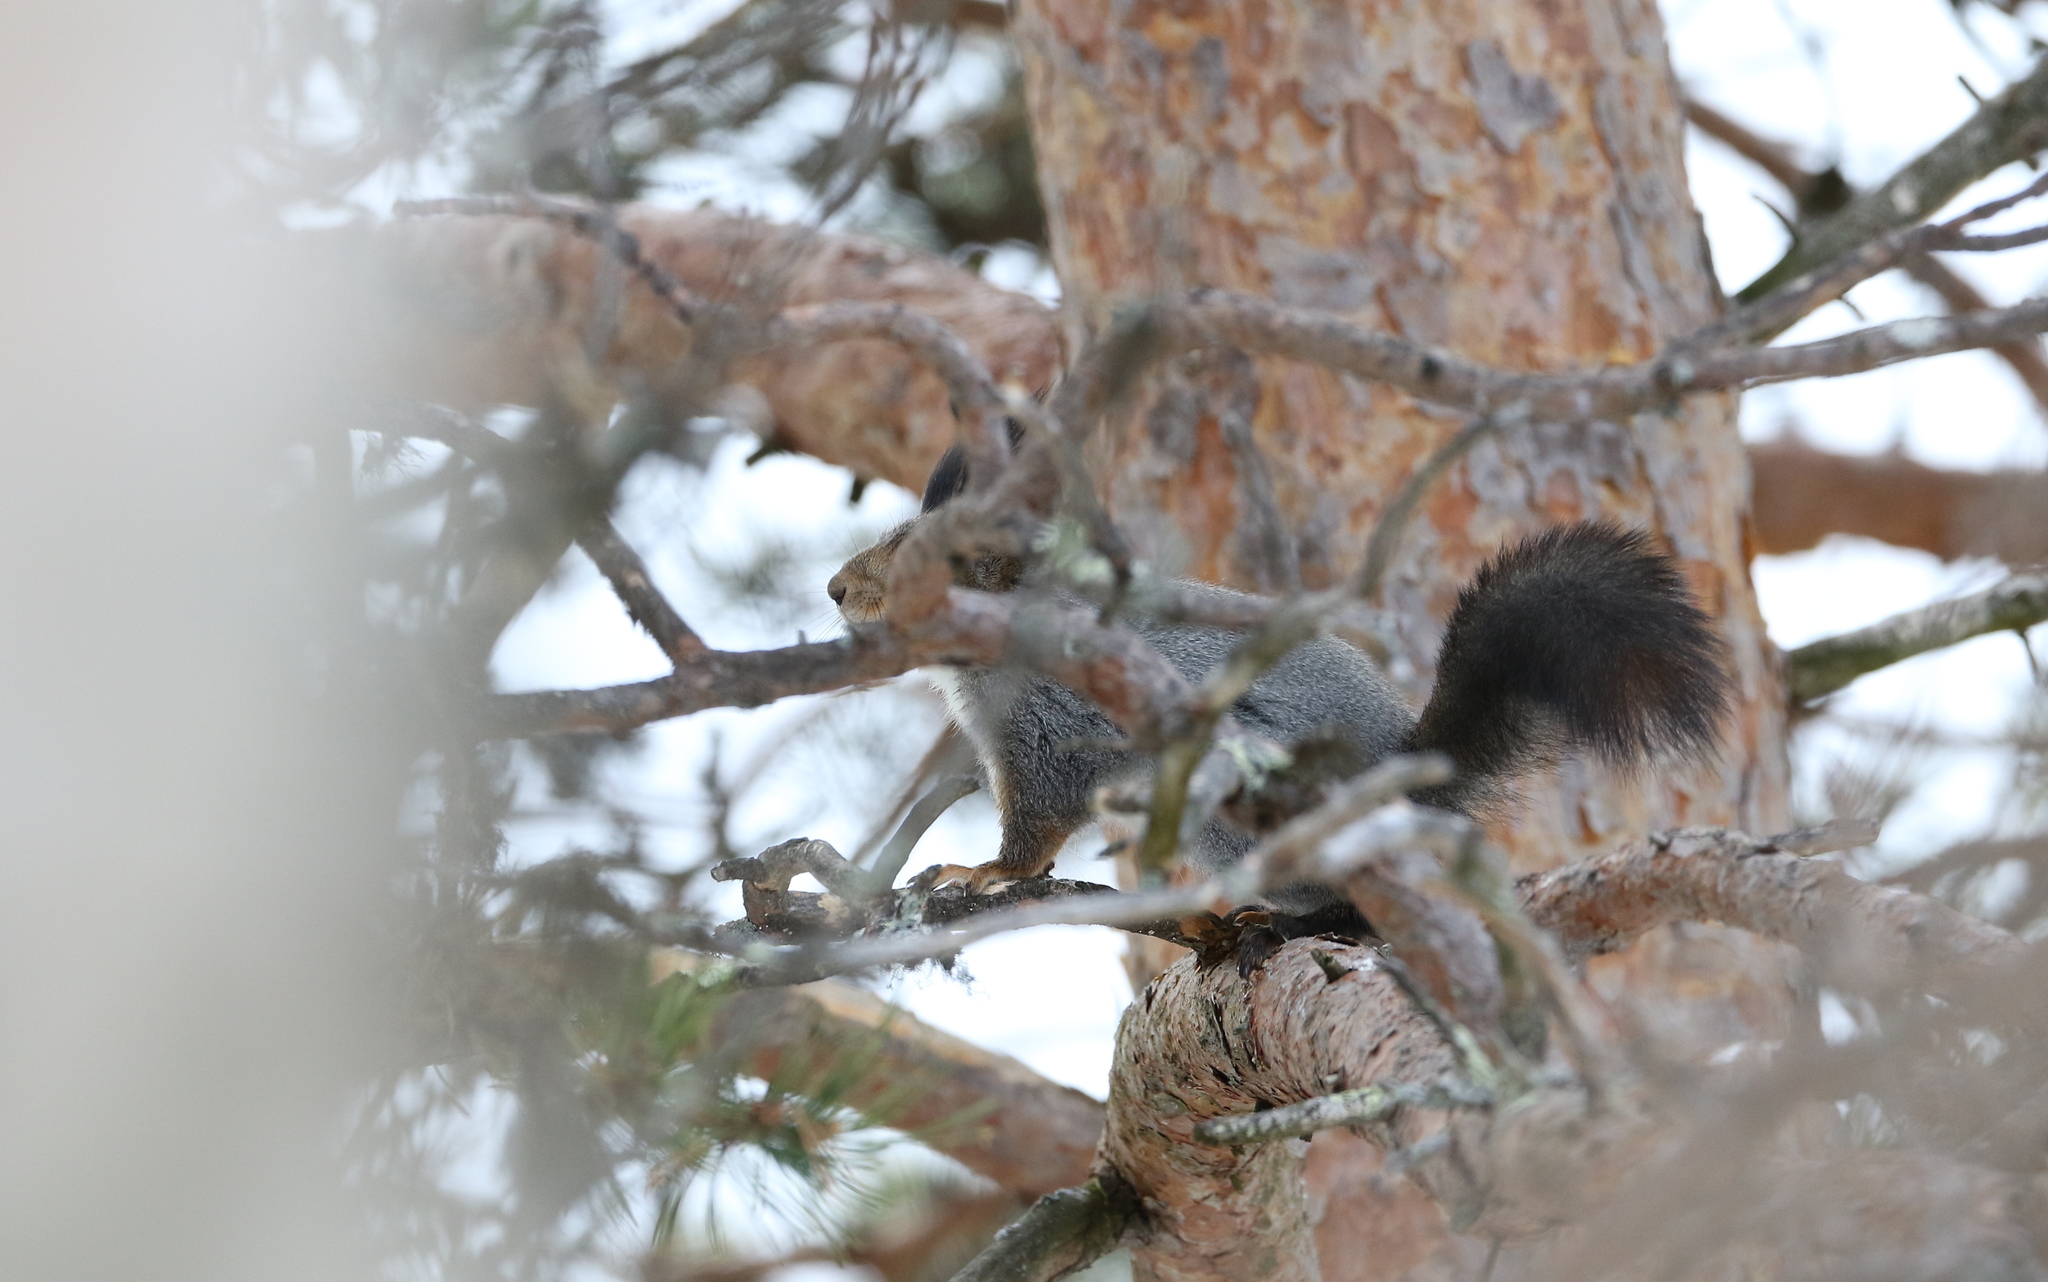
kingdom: Animalia
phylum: Chordata
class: Mammalia
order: Rodentia
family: Sciuridae
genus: Sciurus
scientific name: Sciurus vulgaris
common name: Eurasian red squirrel
